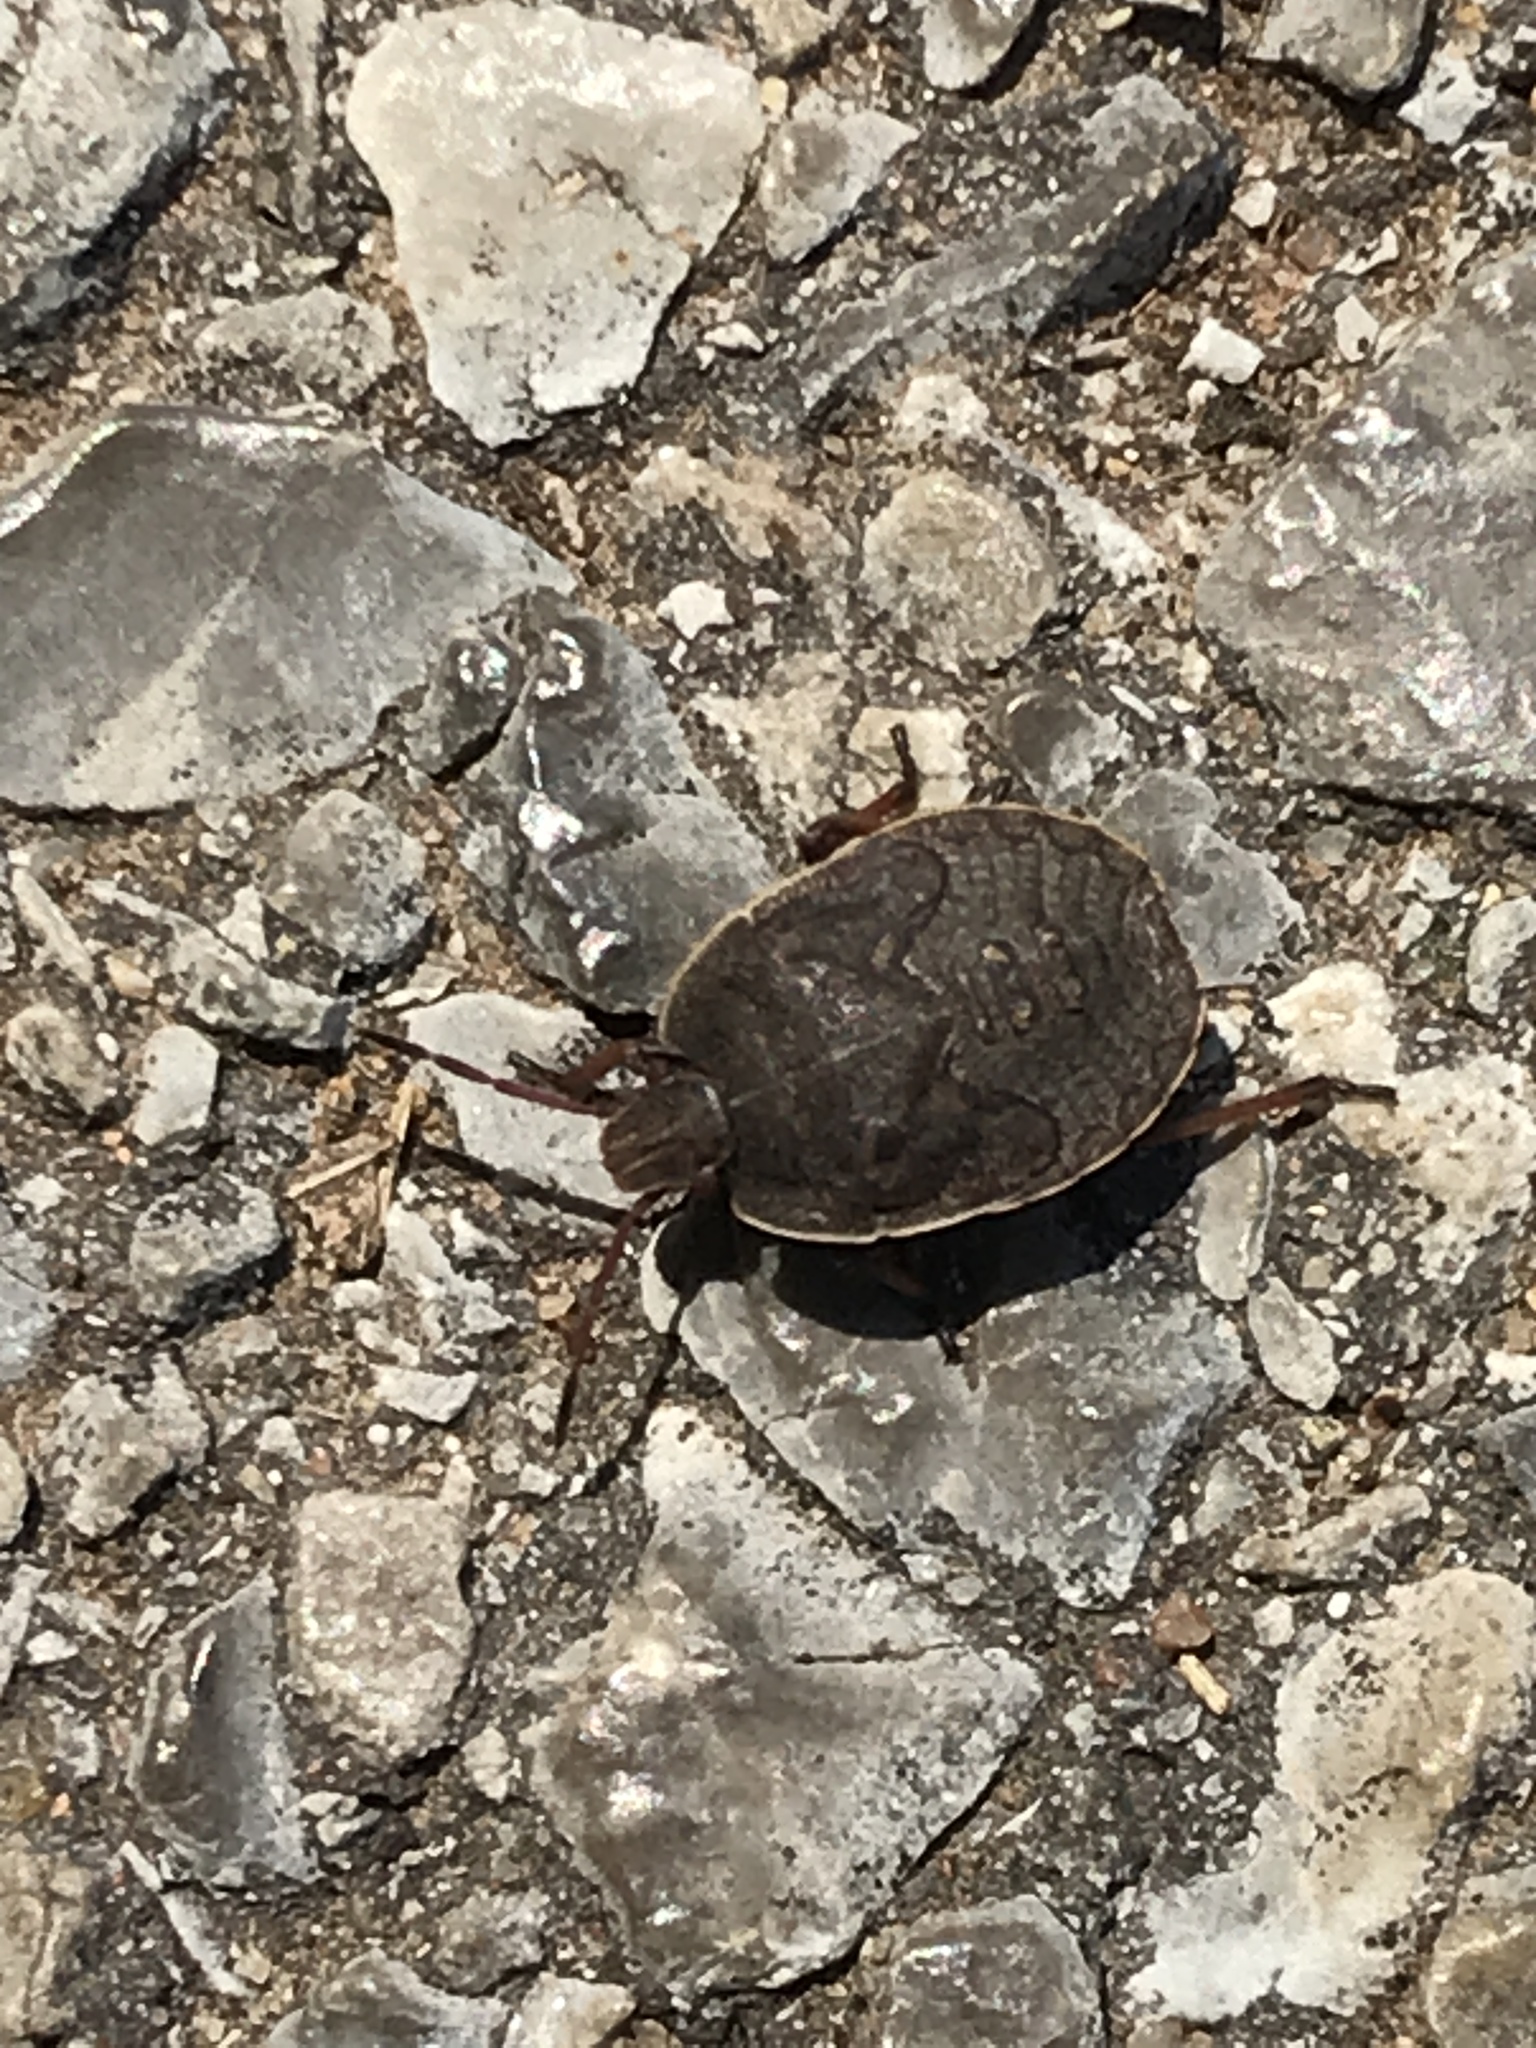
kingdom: Animalia
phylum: Arthropoda
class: Insecta
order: Hemiptera
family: Pentatomidae
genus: Menecles
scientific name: Menecles insertus
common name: Elf shoe stink bug
